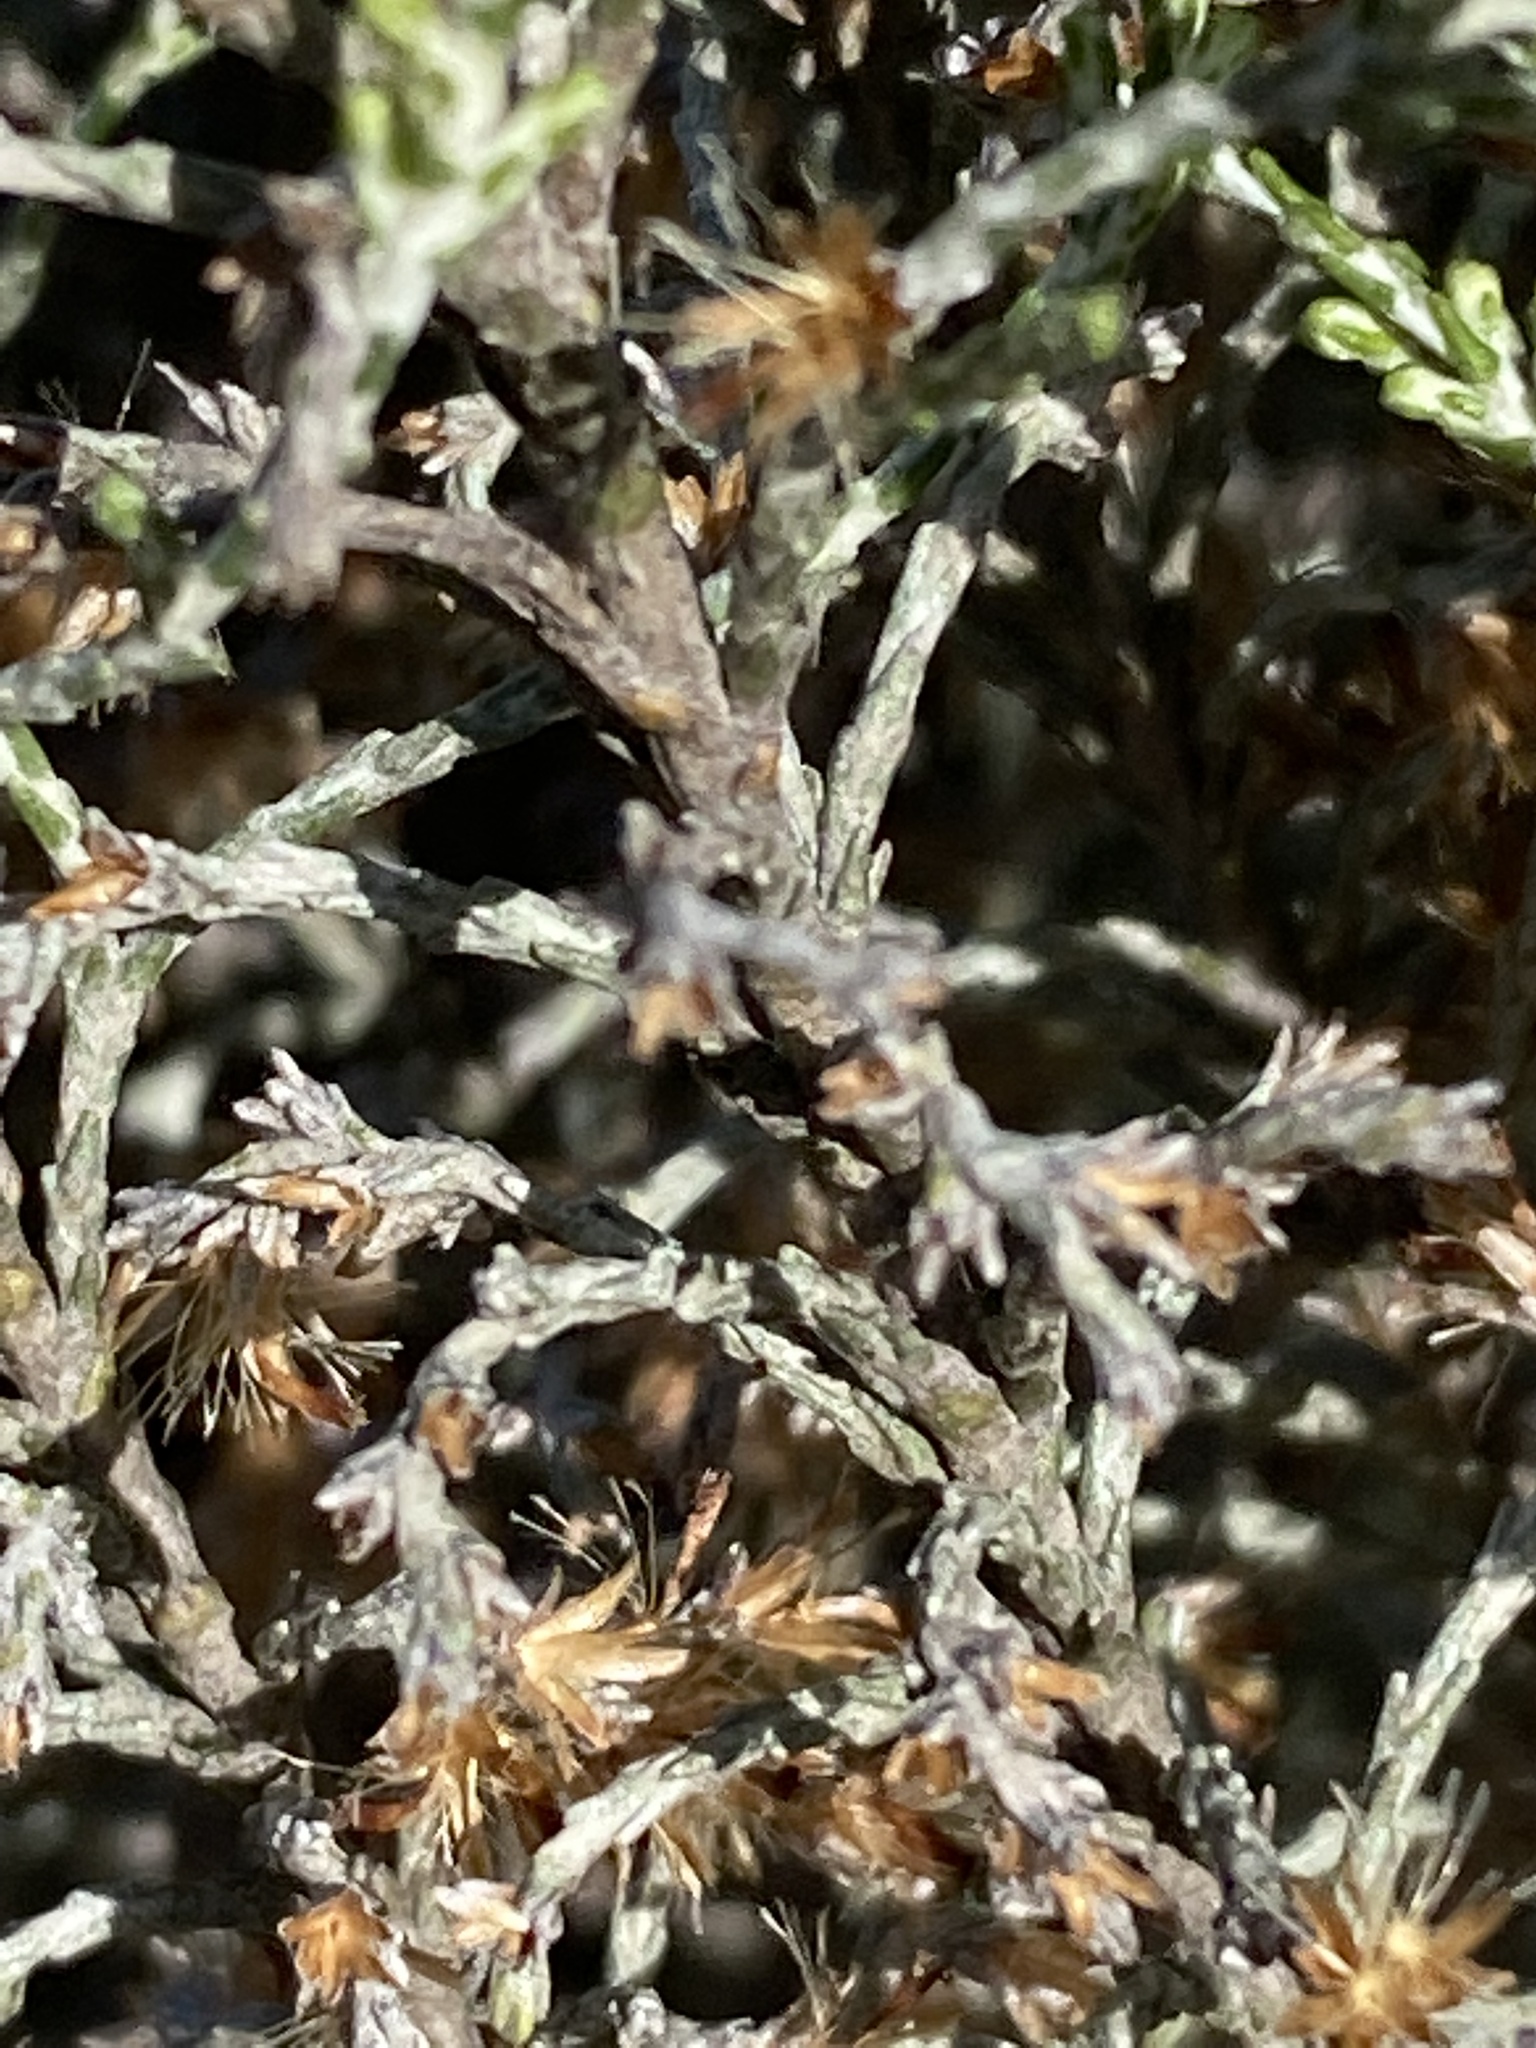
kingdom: Plantae
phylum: Tracheophyta
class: Magnoliopsida
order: Malvales
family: Thymelaeaceae
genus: Passerina
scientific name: Passerina rigida
